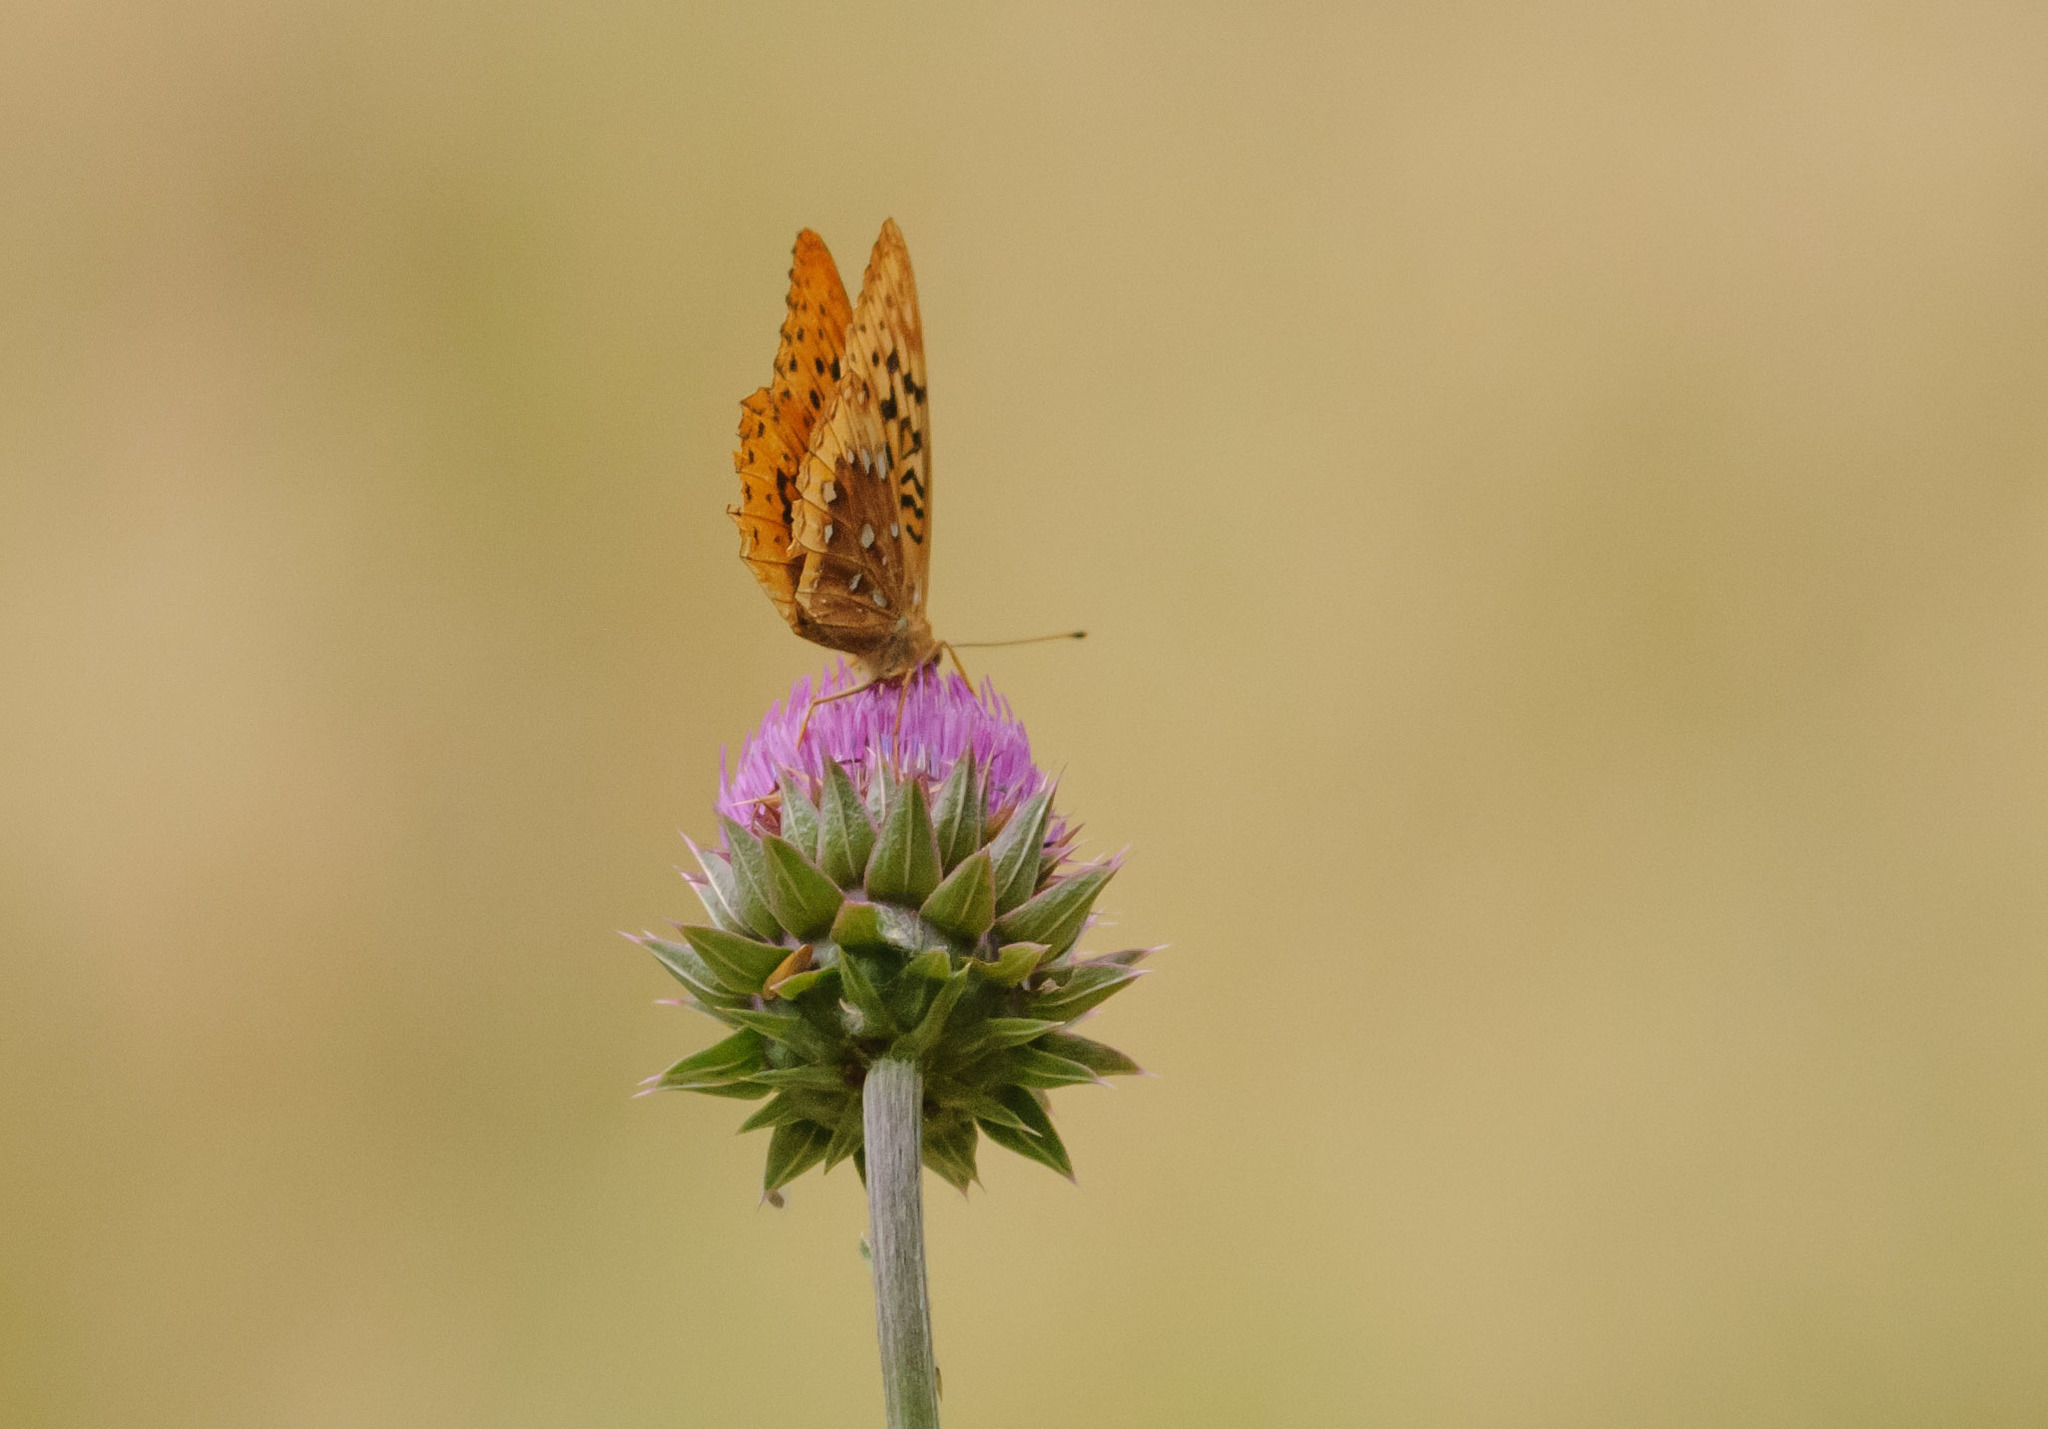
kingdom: Animalia
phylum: Arthropoda
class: Insecta
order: Lepidoptera
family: Nymphalidae
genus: Speyeria
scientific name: Speyeria cybele
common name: Great spangled fritillary
